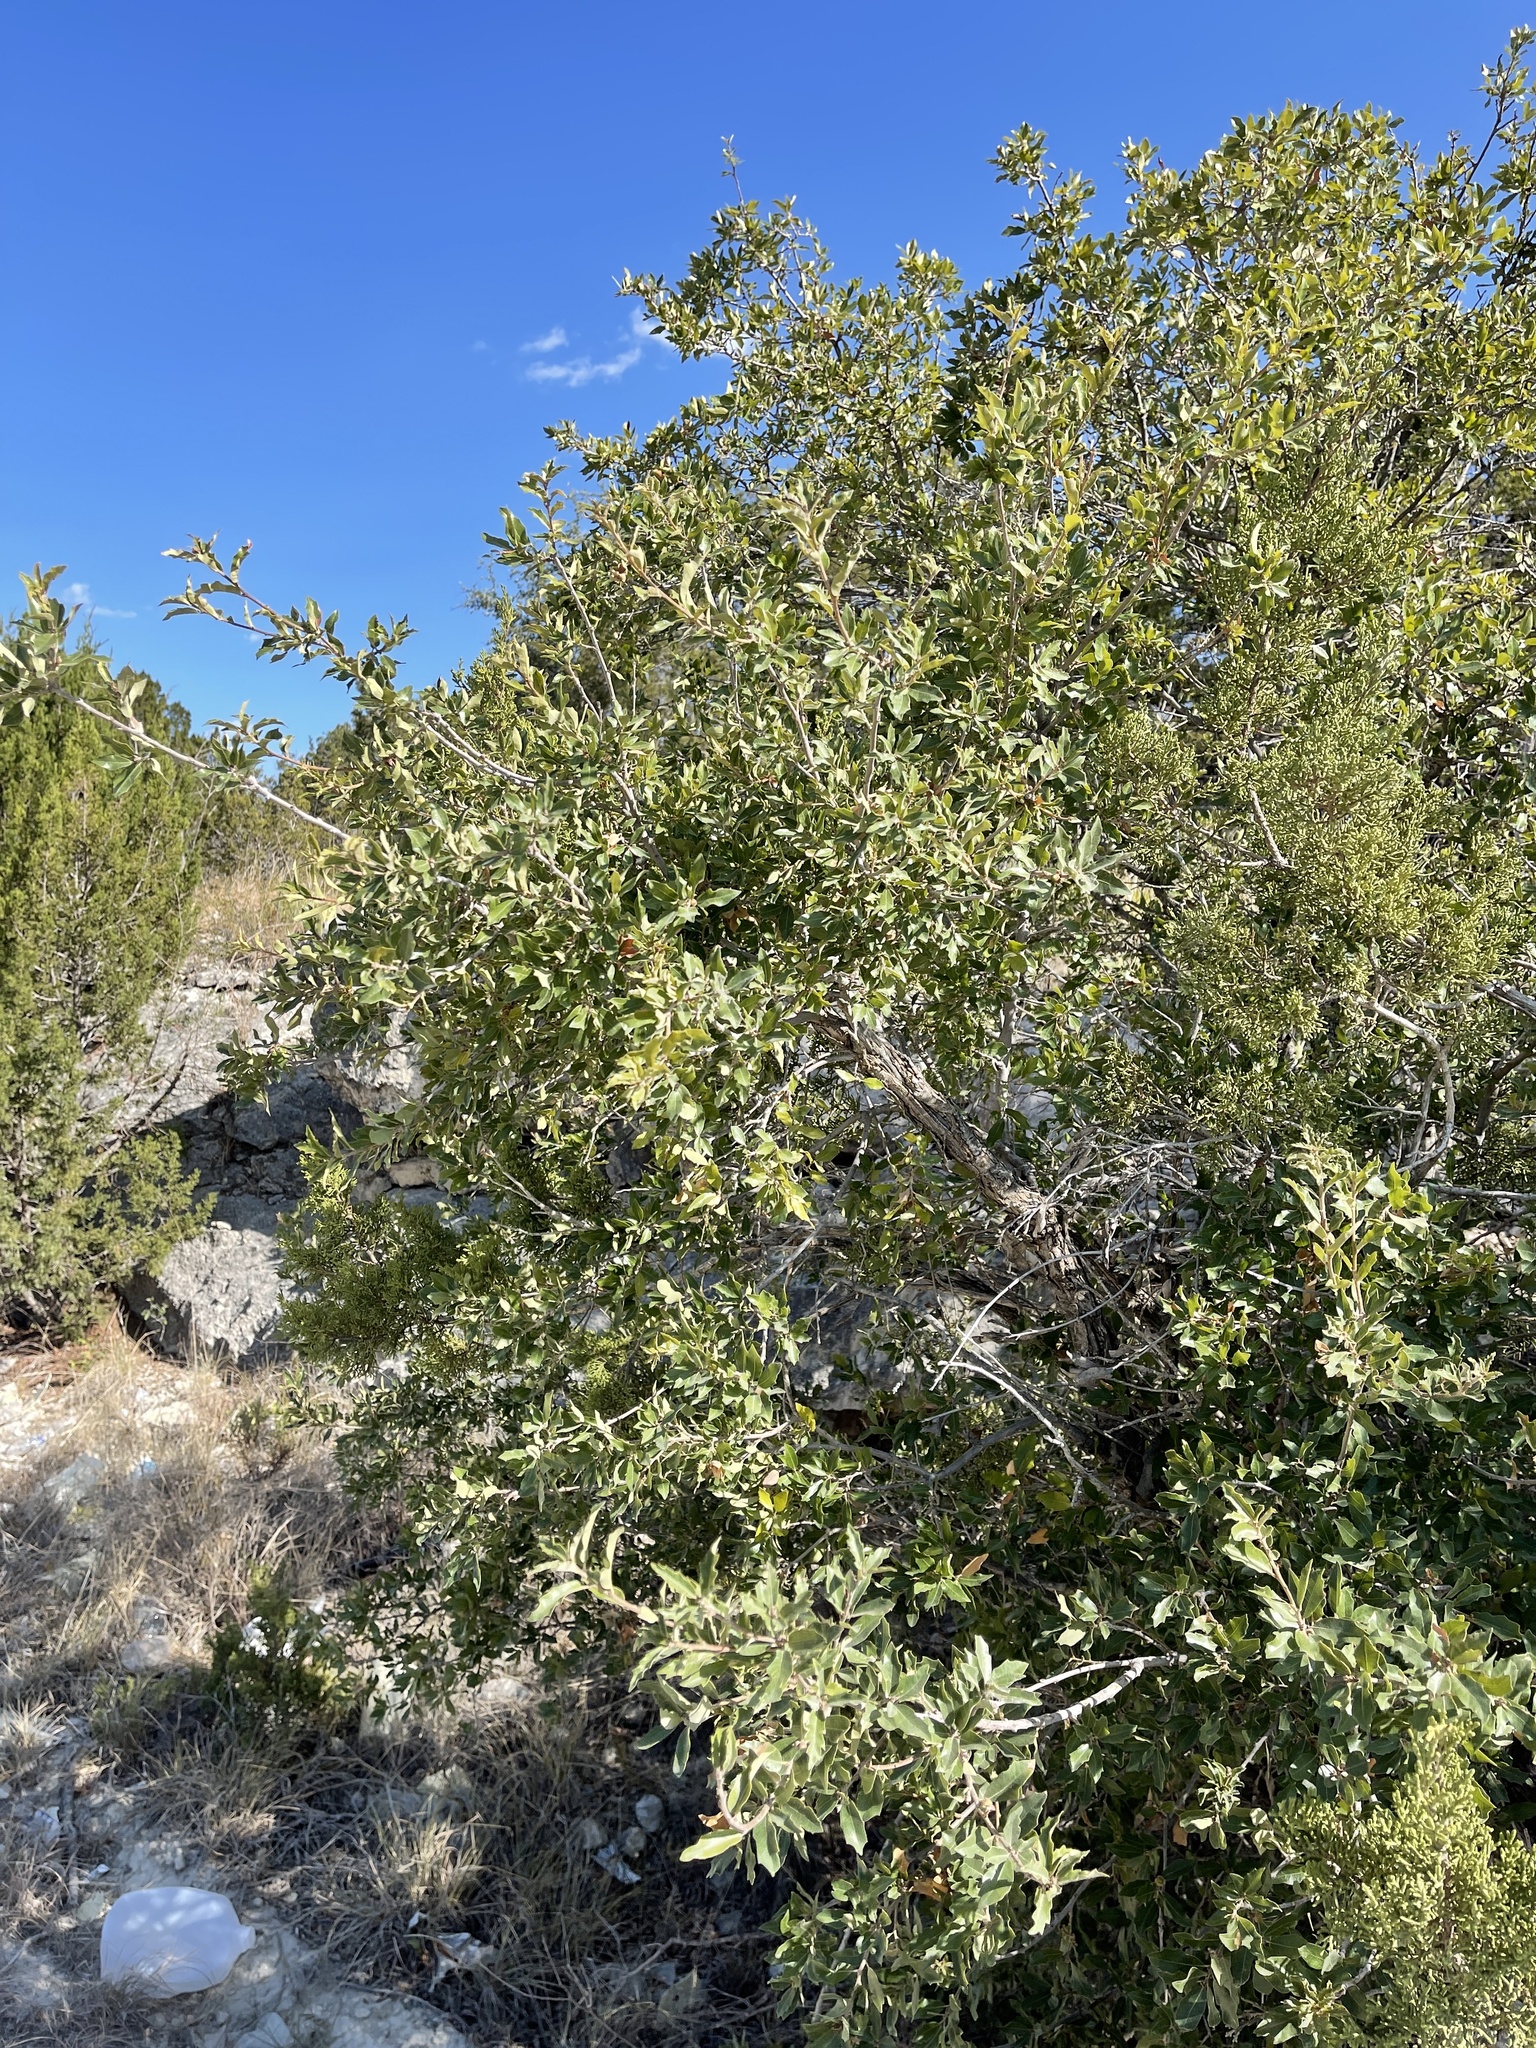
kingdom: Plantae
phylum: Tracheophyta
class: Magnoliopsida
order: Fagales
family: Fagaceae
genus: Quercus
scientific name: Quercus vaseyana
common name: Sandpaper oak
